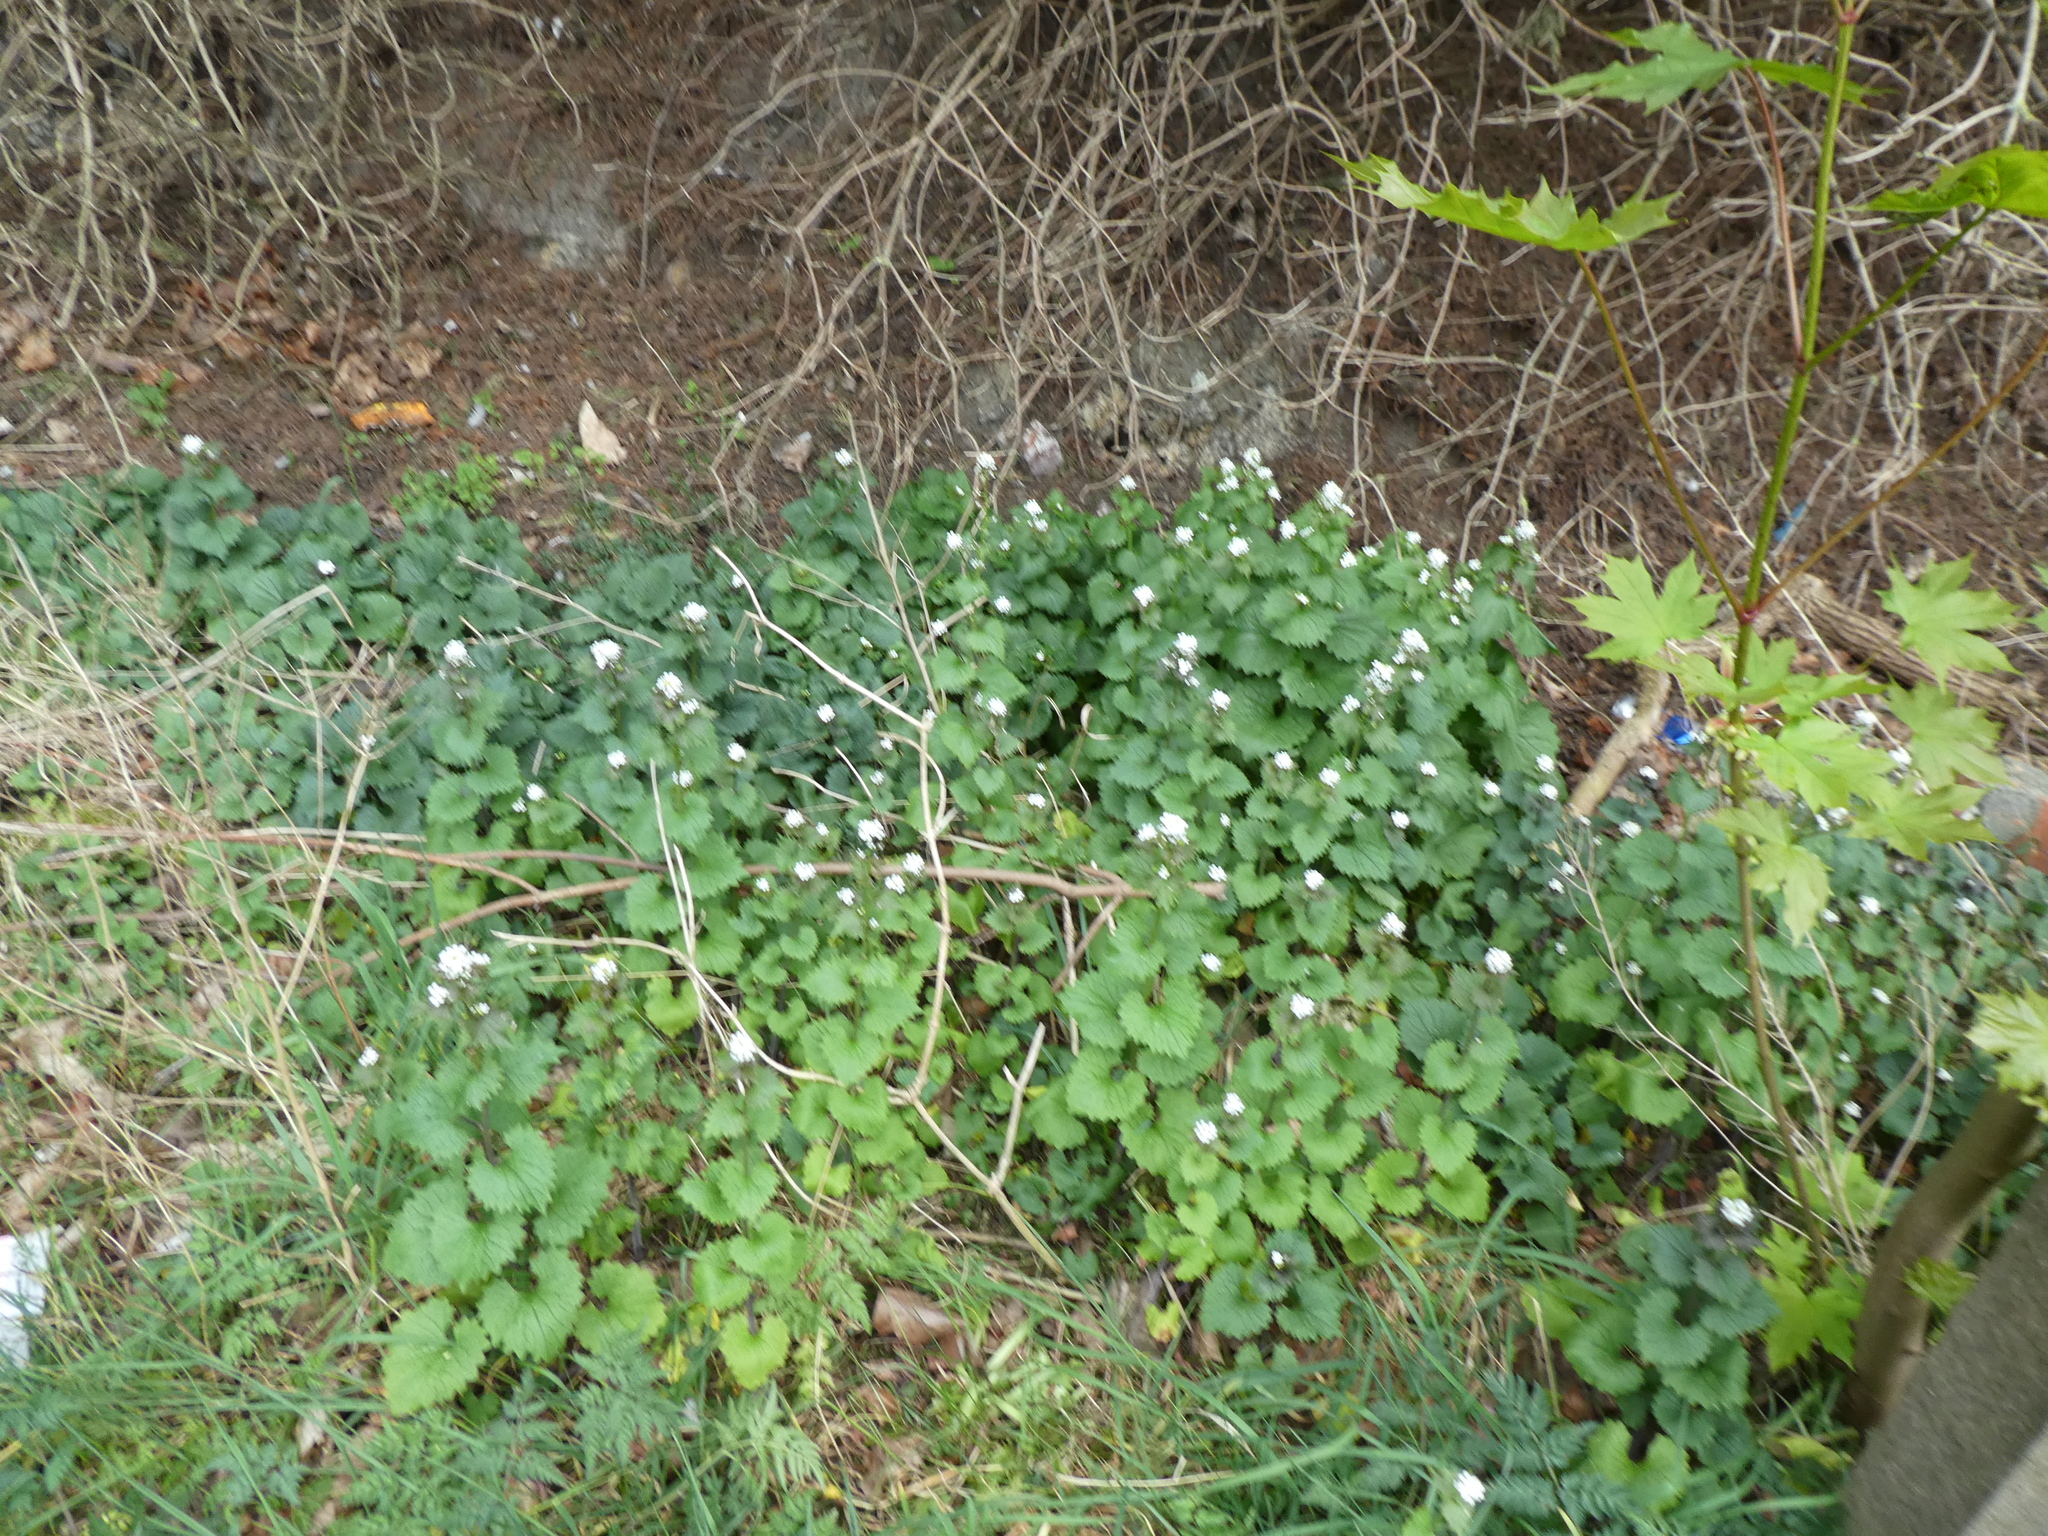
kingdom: Plantae
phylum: Tracheophyta
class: Magnoliopsida
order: Brassicales
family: Brassicaceae
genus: Alliaria
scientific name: Alliaria petiolata
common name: Garlic mustard
